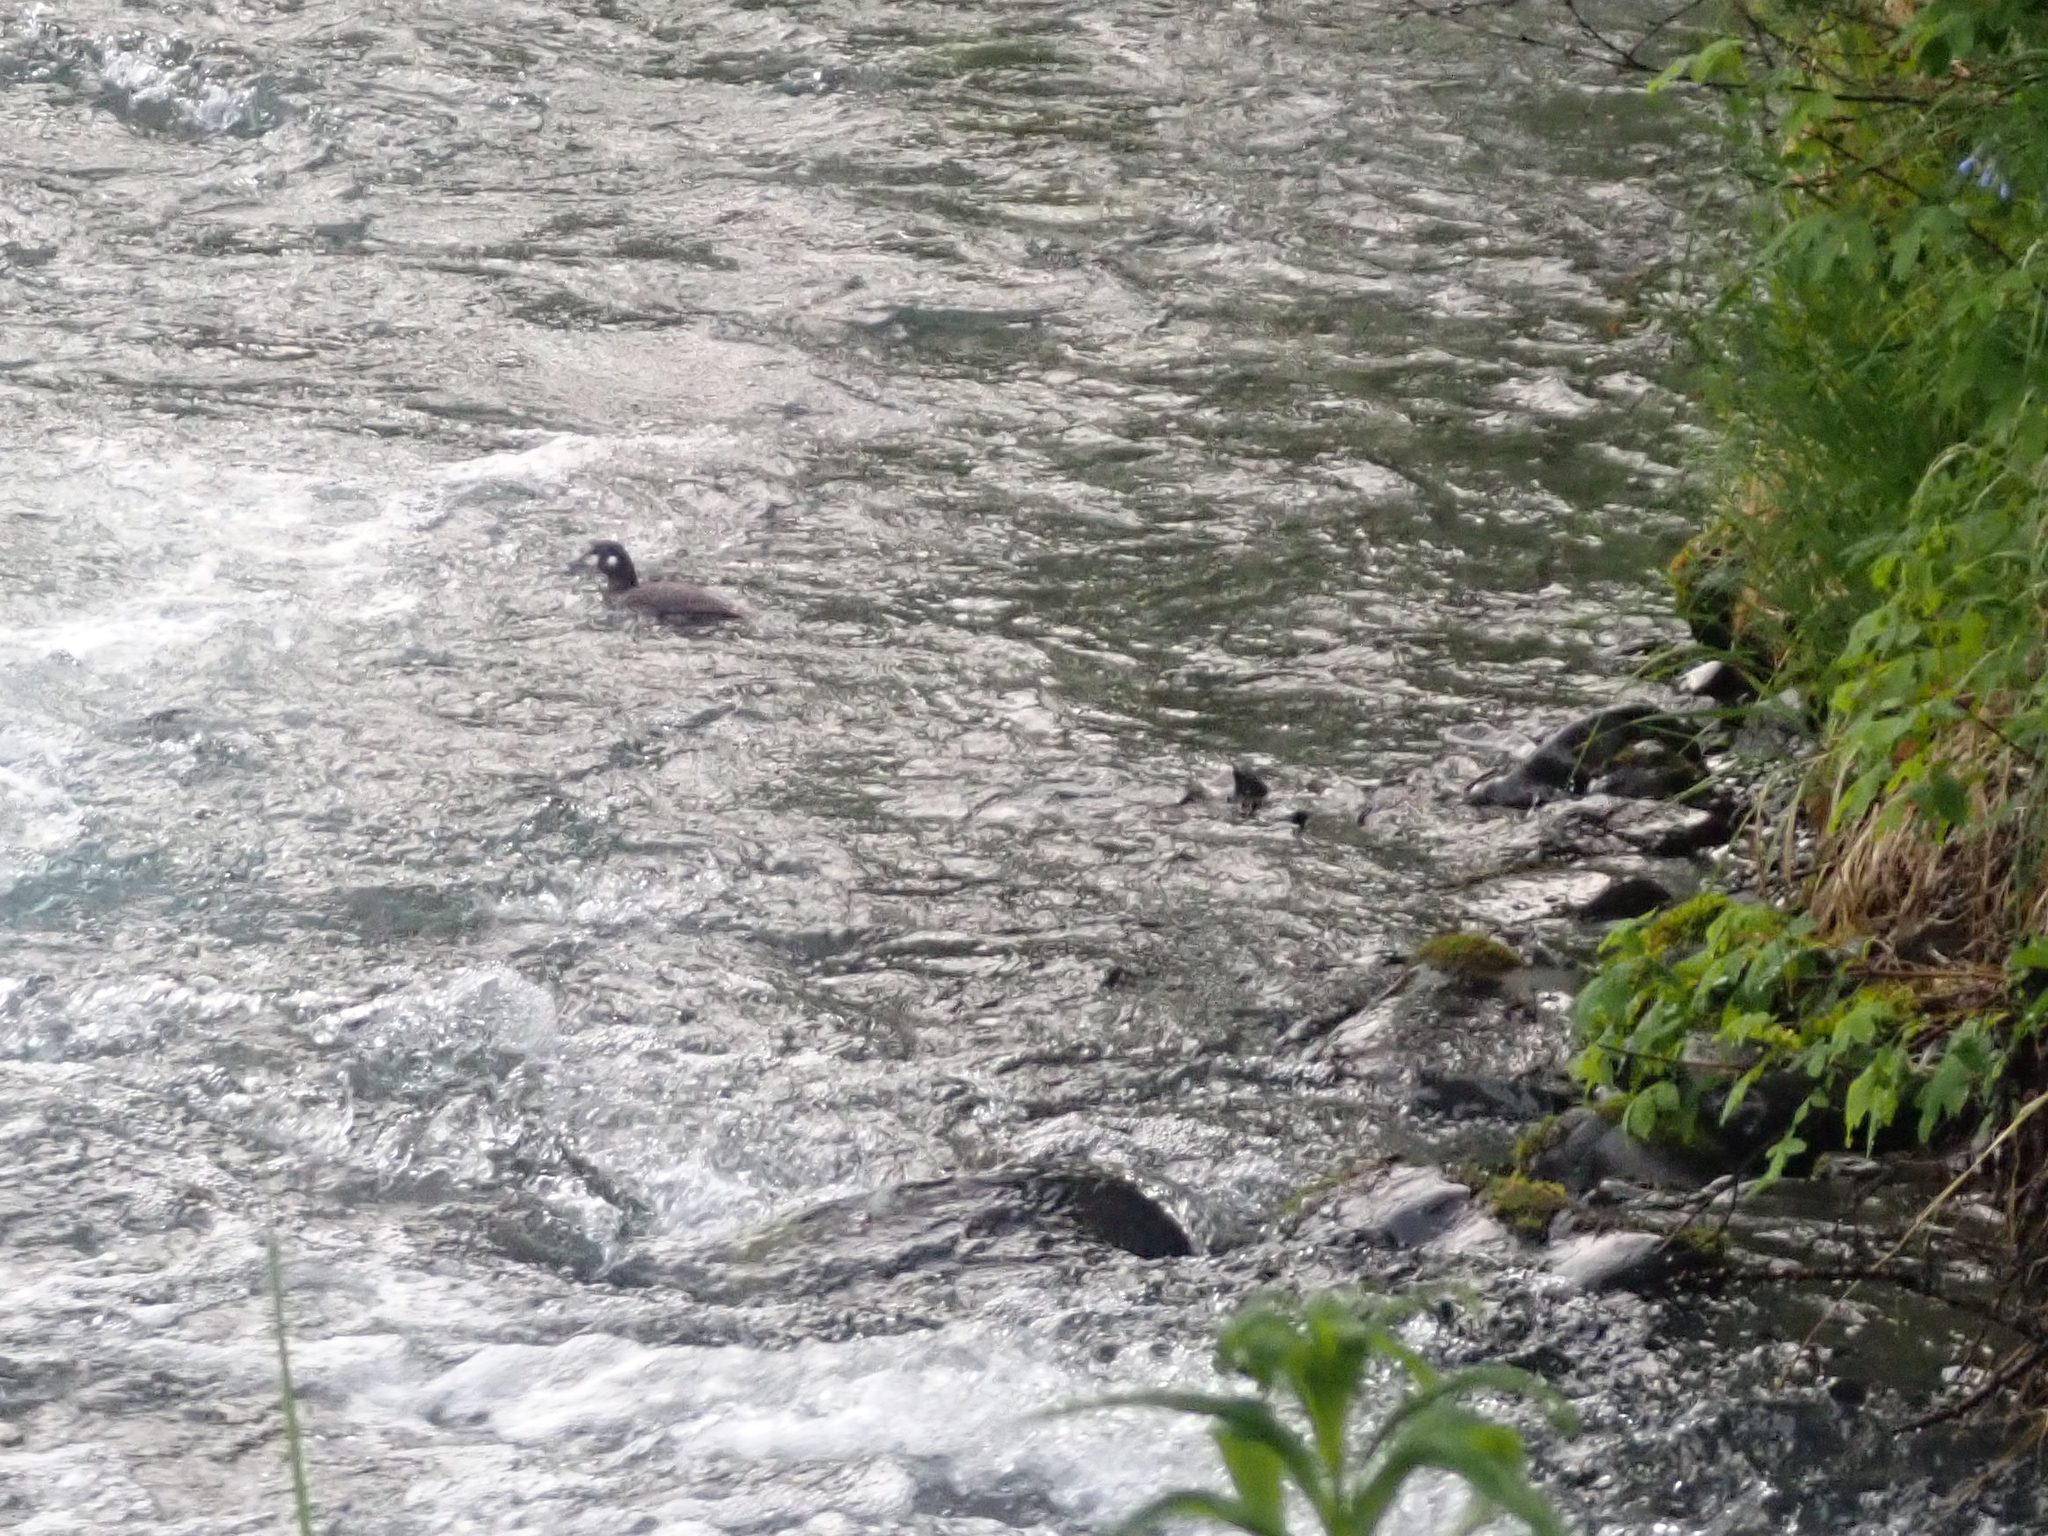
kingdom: Animalia
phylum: Chordata
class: Aves
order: Anseriformes
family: Anatidae
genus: Histrionicus
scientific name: Histrionicus histrionicus
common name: Harlequin duck
